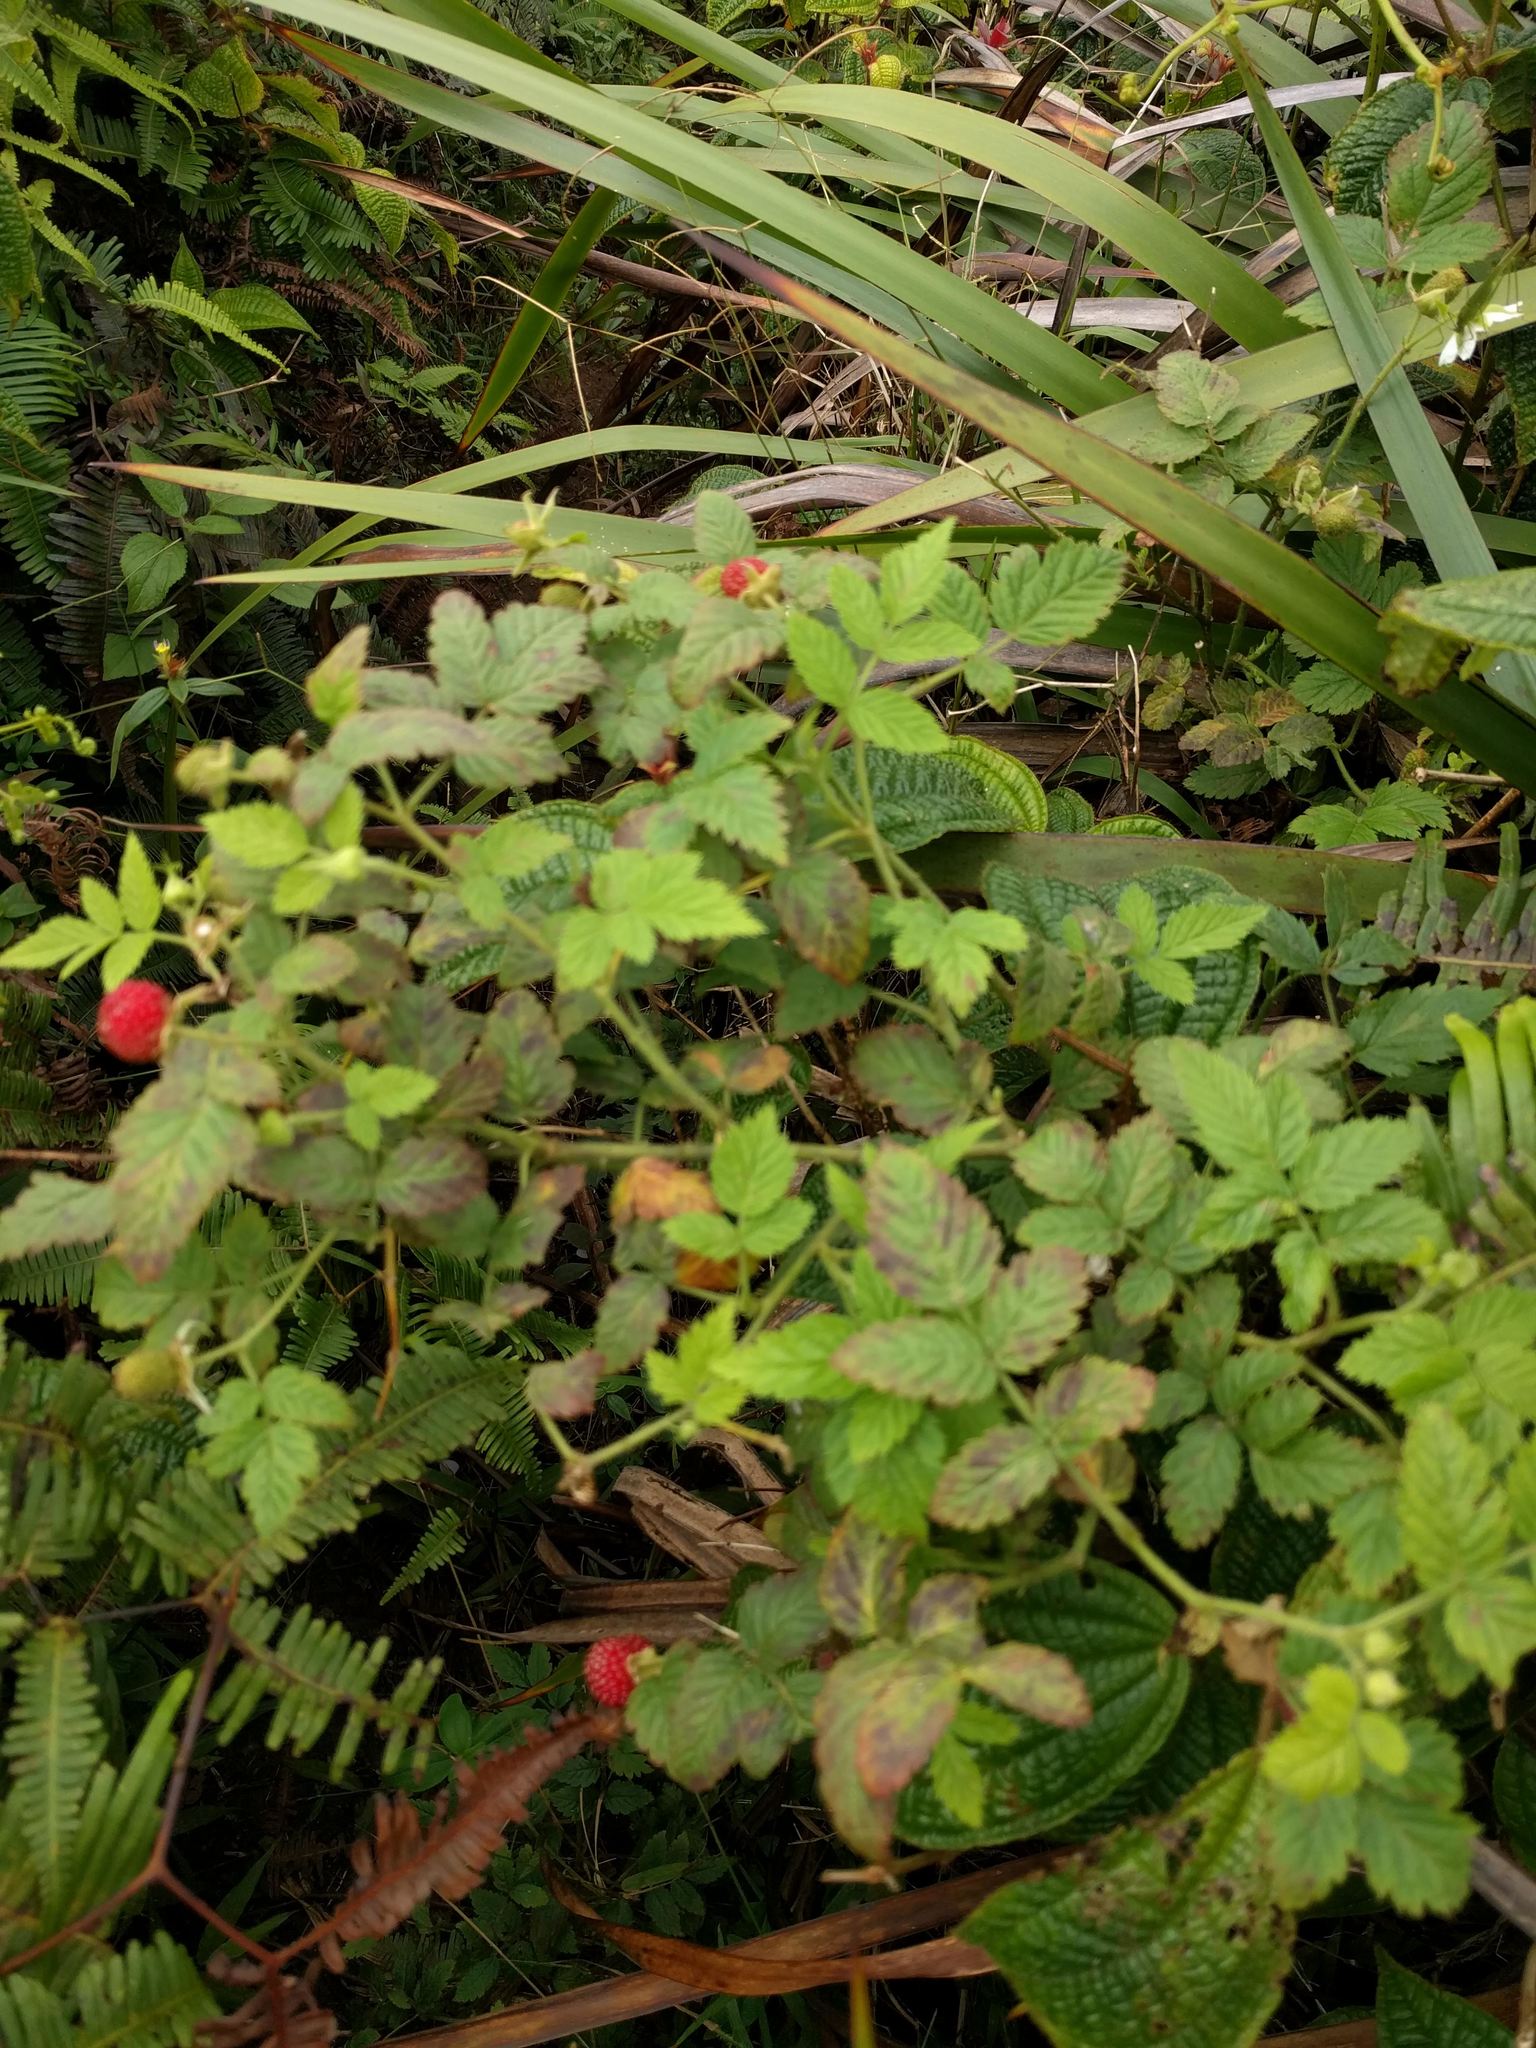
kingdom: Plantae
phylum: Tracheophyta
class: Magnoliopsida
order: Rosales
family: Rosaceae
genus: Rubus
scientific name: Rubus rosifolius
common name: Roseleaf raspberry
